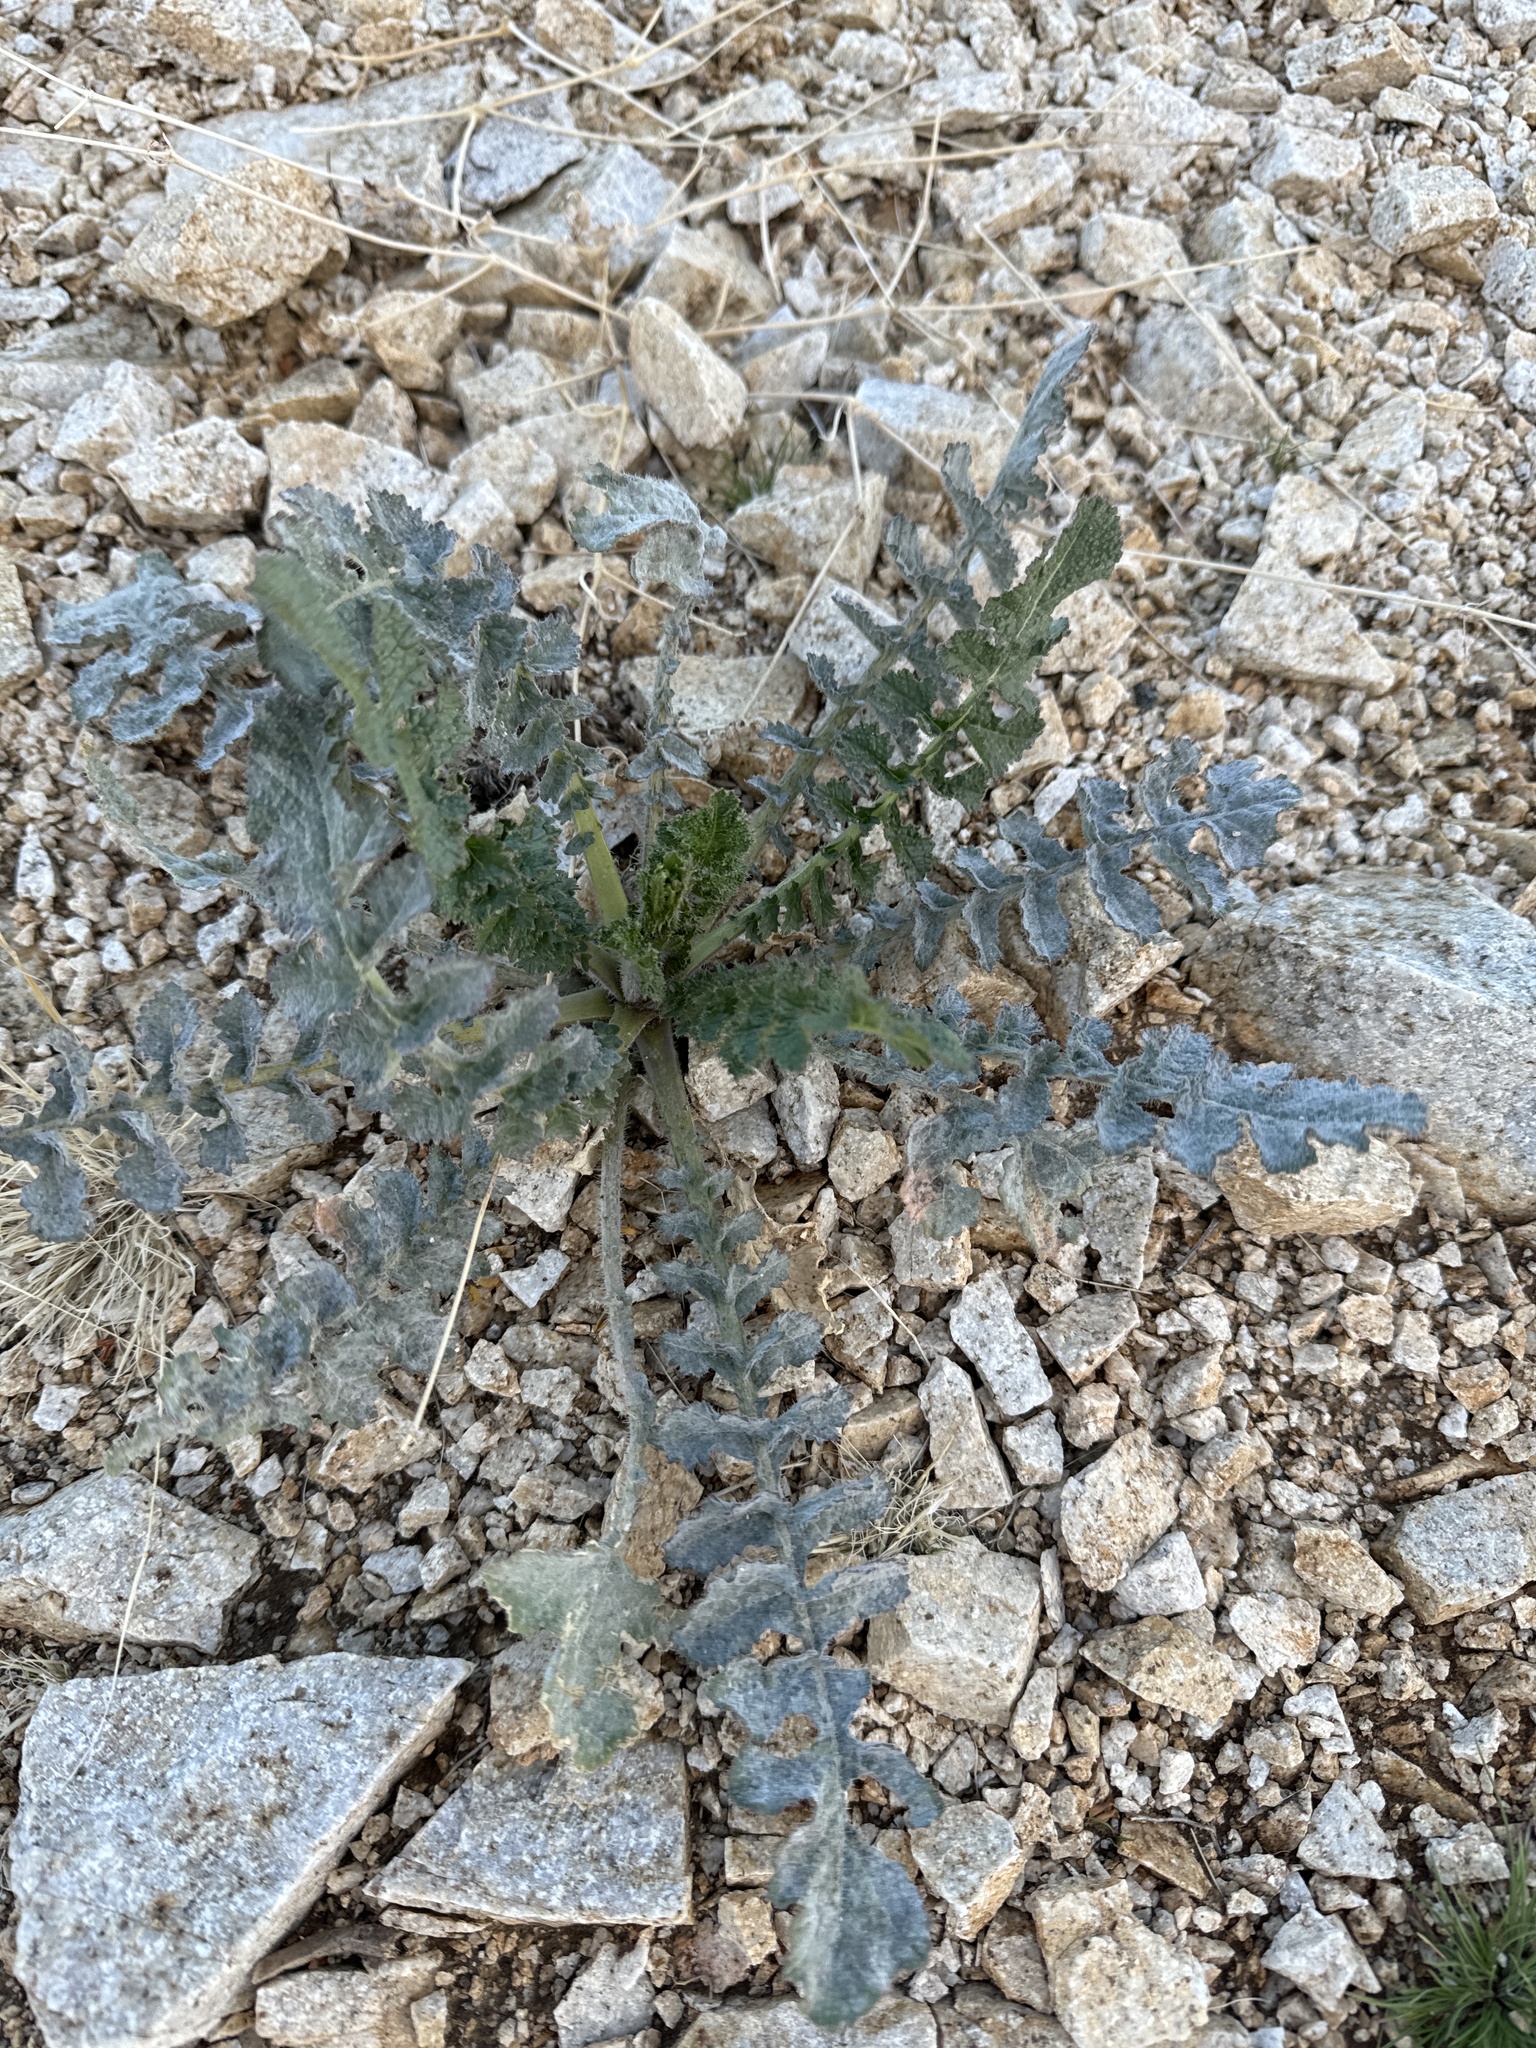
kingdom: Plantae
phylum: Tracheophyta
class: Magnoliopsida
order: Brassicales
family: Brassicaceae
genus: Brassica
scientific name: Brassica tournefortii
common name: Pale cabbage
